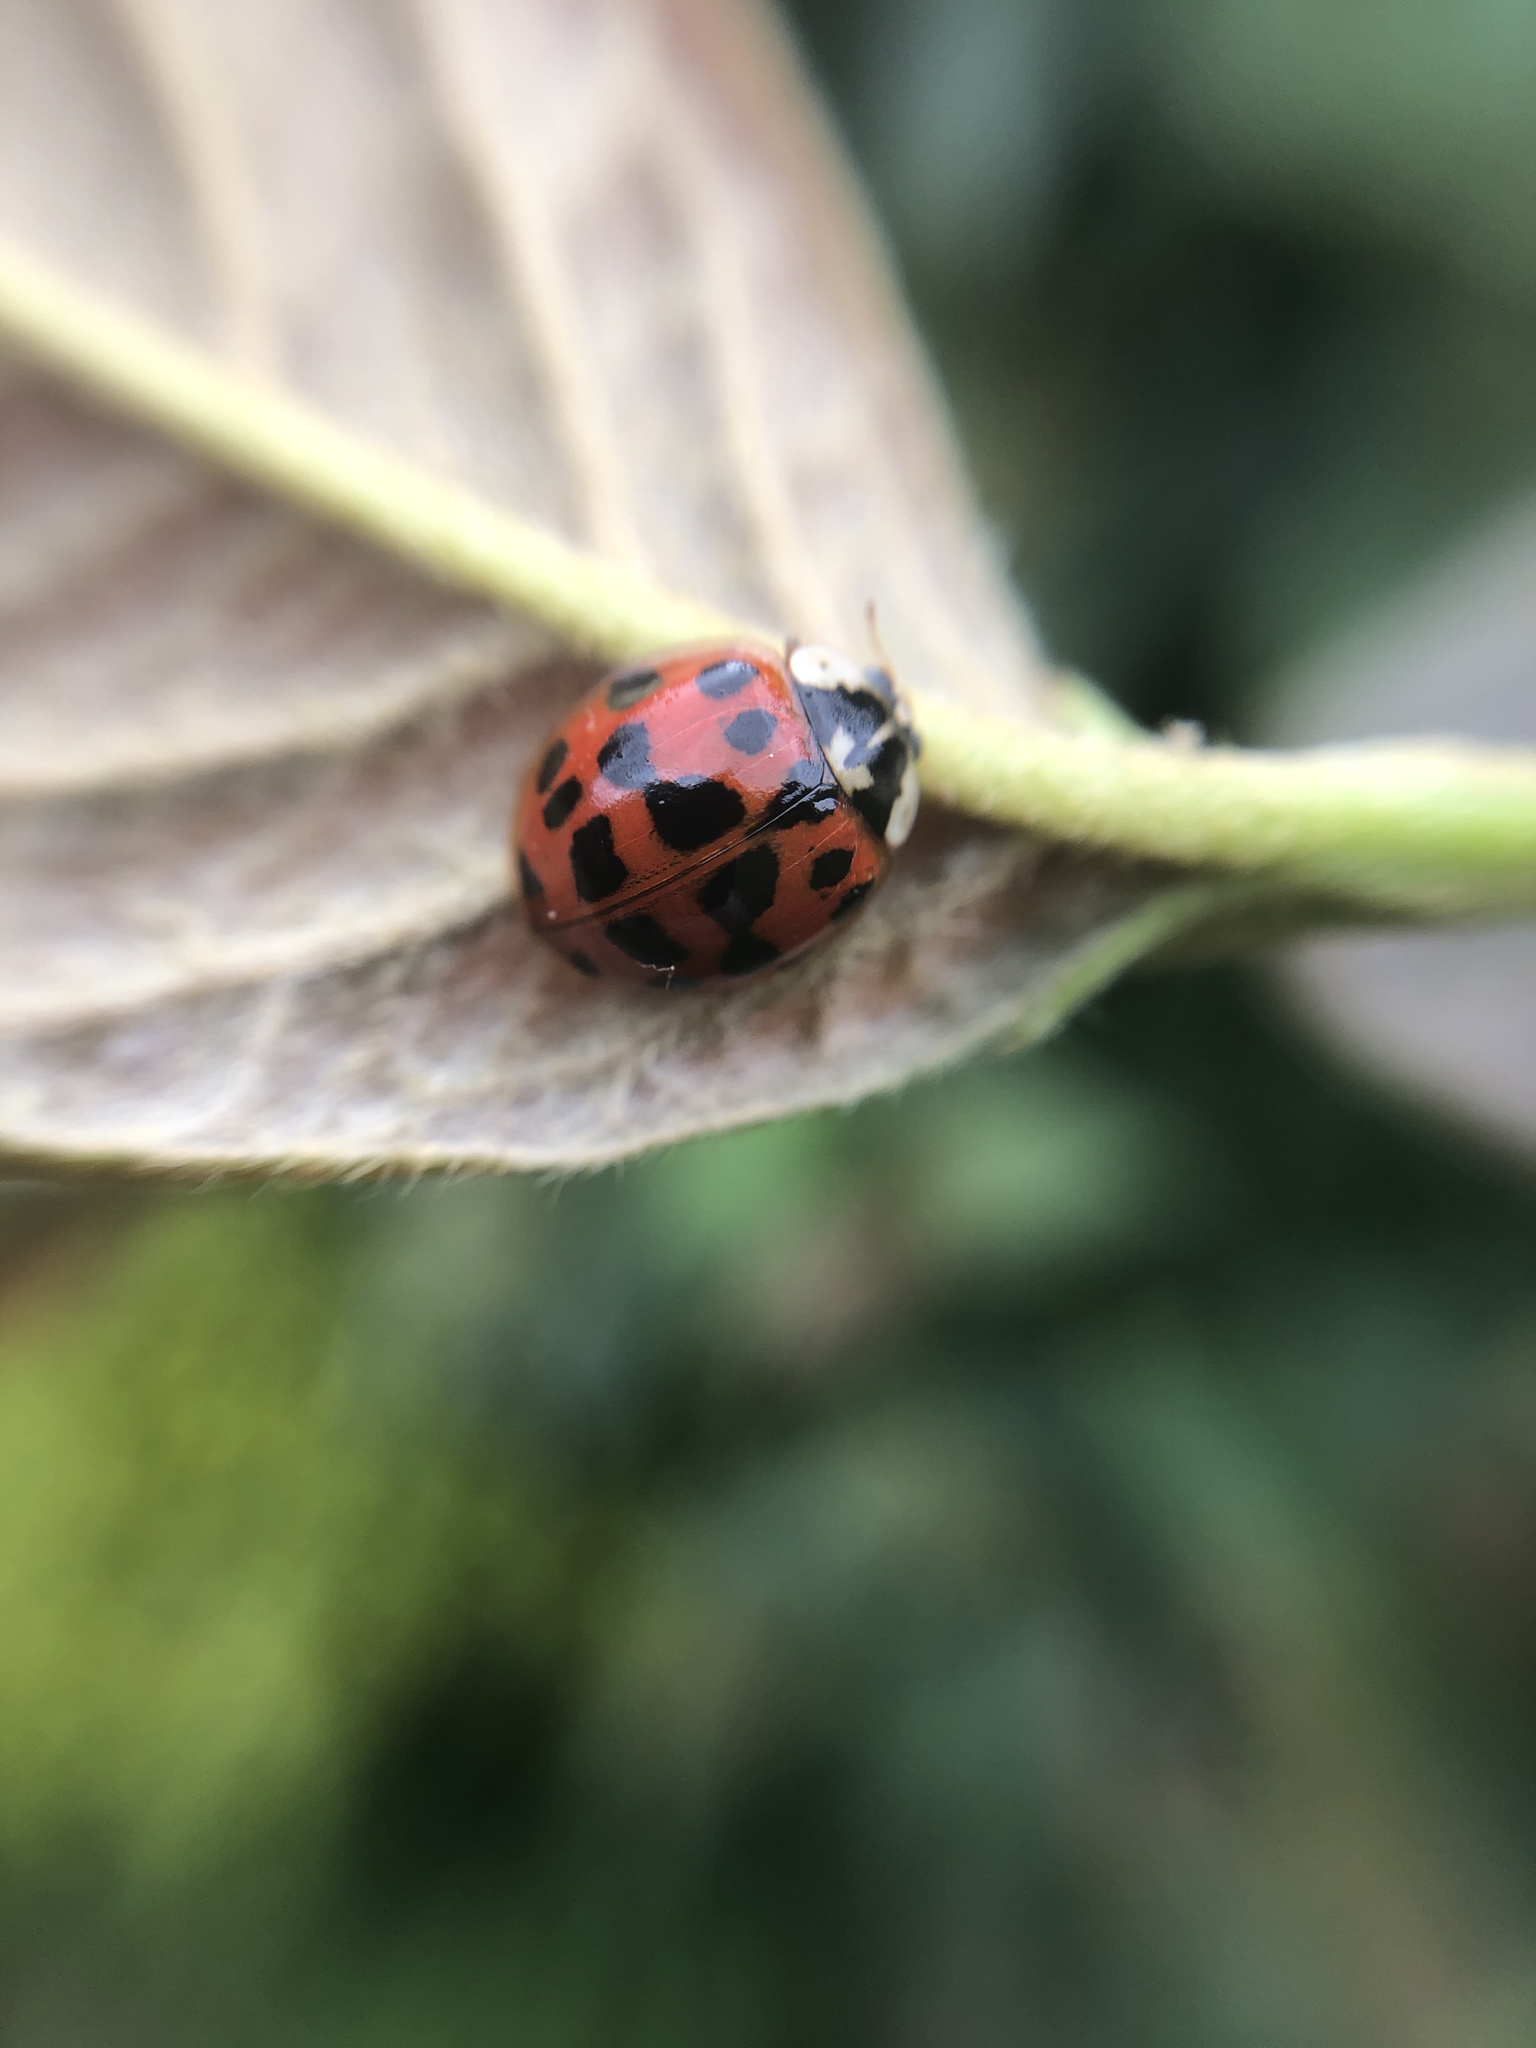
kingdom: Animalia
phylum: Arthropoda
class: Insecta
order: Coleoptera
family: Coccinellidae
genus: Harmonia
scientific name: Harmonia axyridis
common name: Harlequin ladybird
